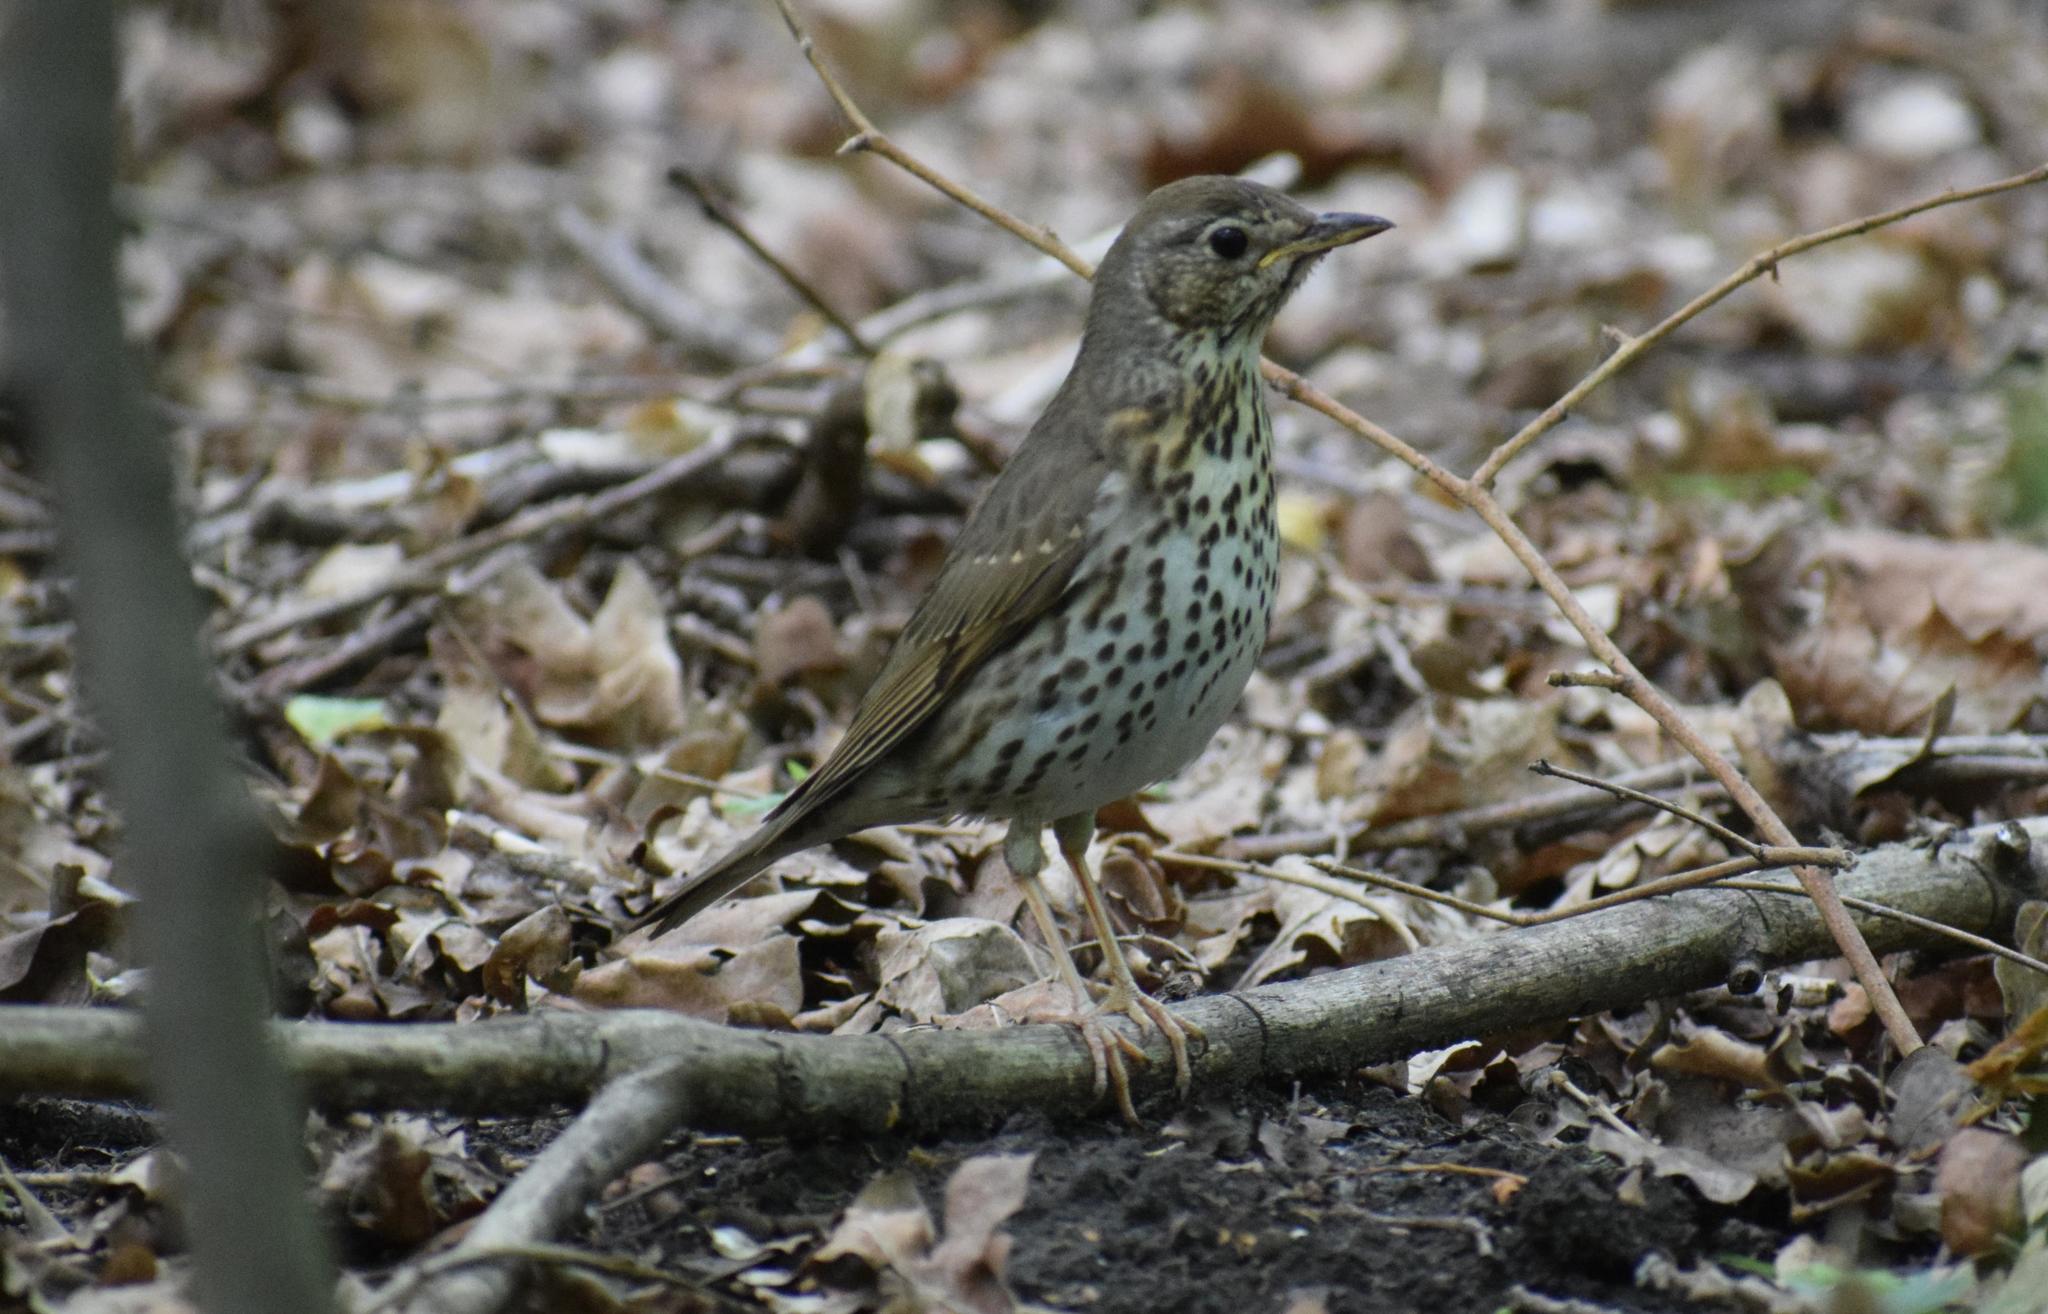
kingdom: Animalia
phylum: Chordata
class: Aves
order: Passeriformes
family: Turdidae
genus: Turdus
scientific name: Turdus philomelos
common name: Song thrush
